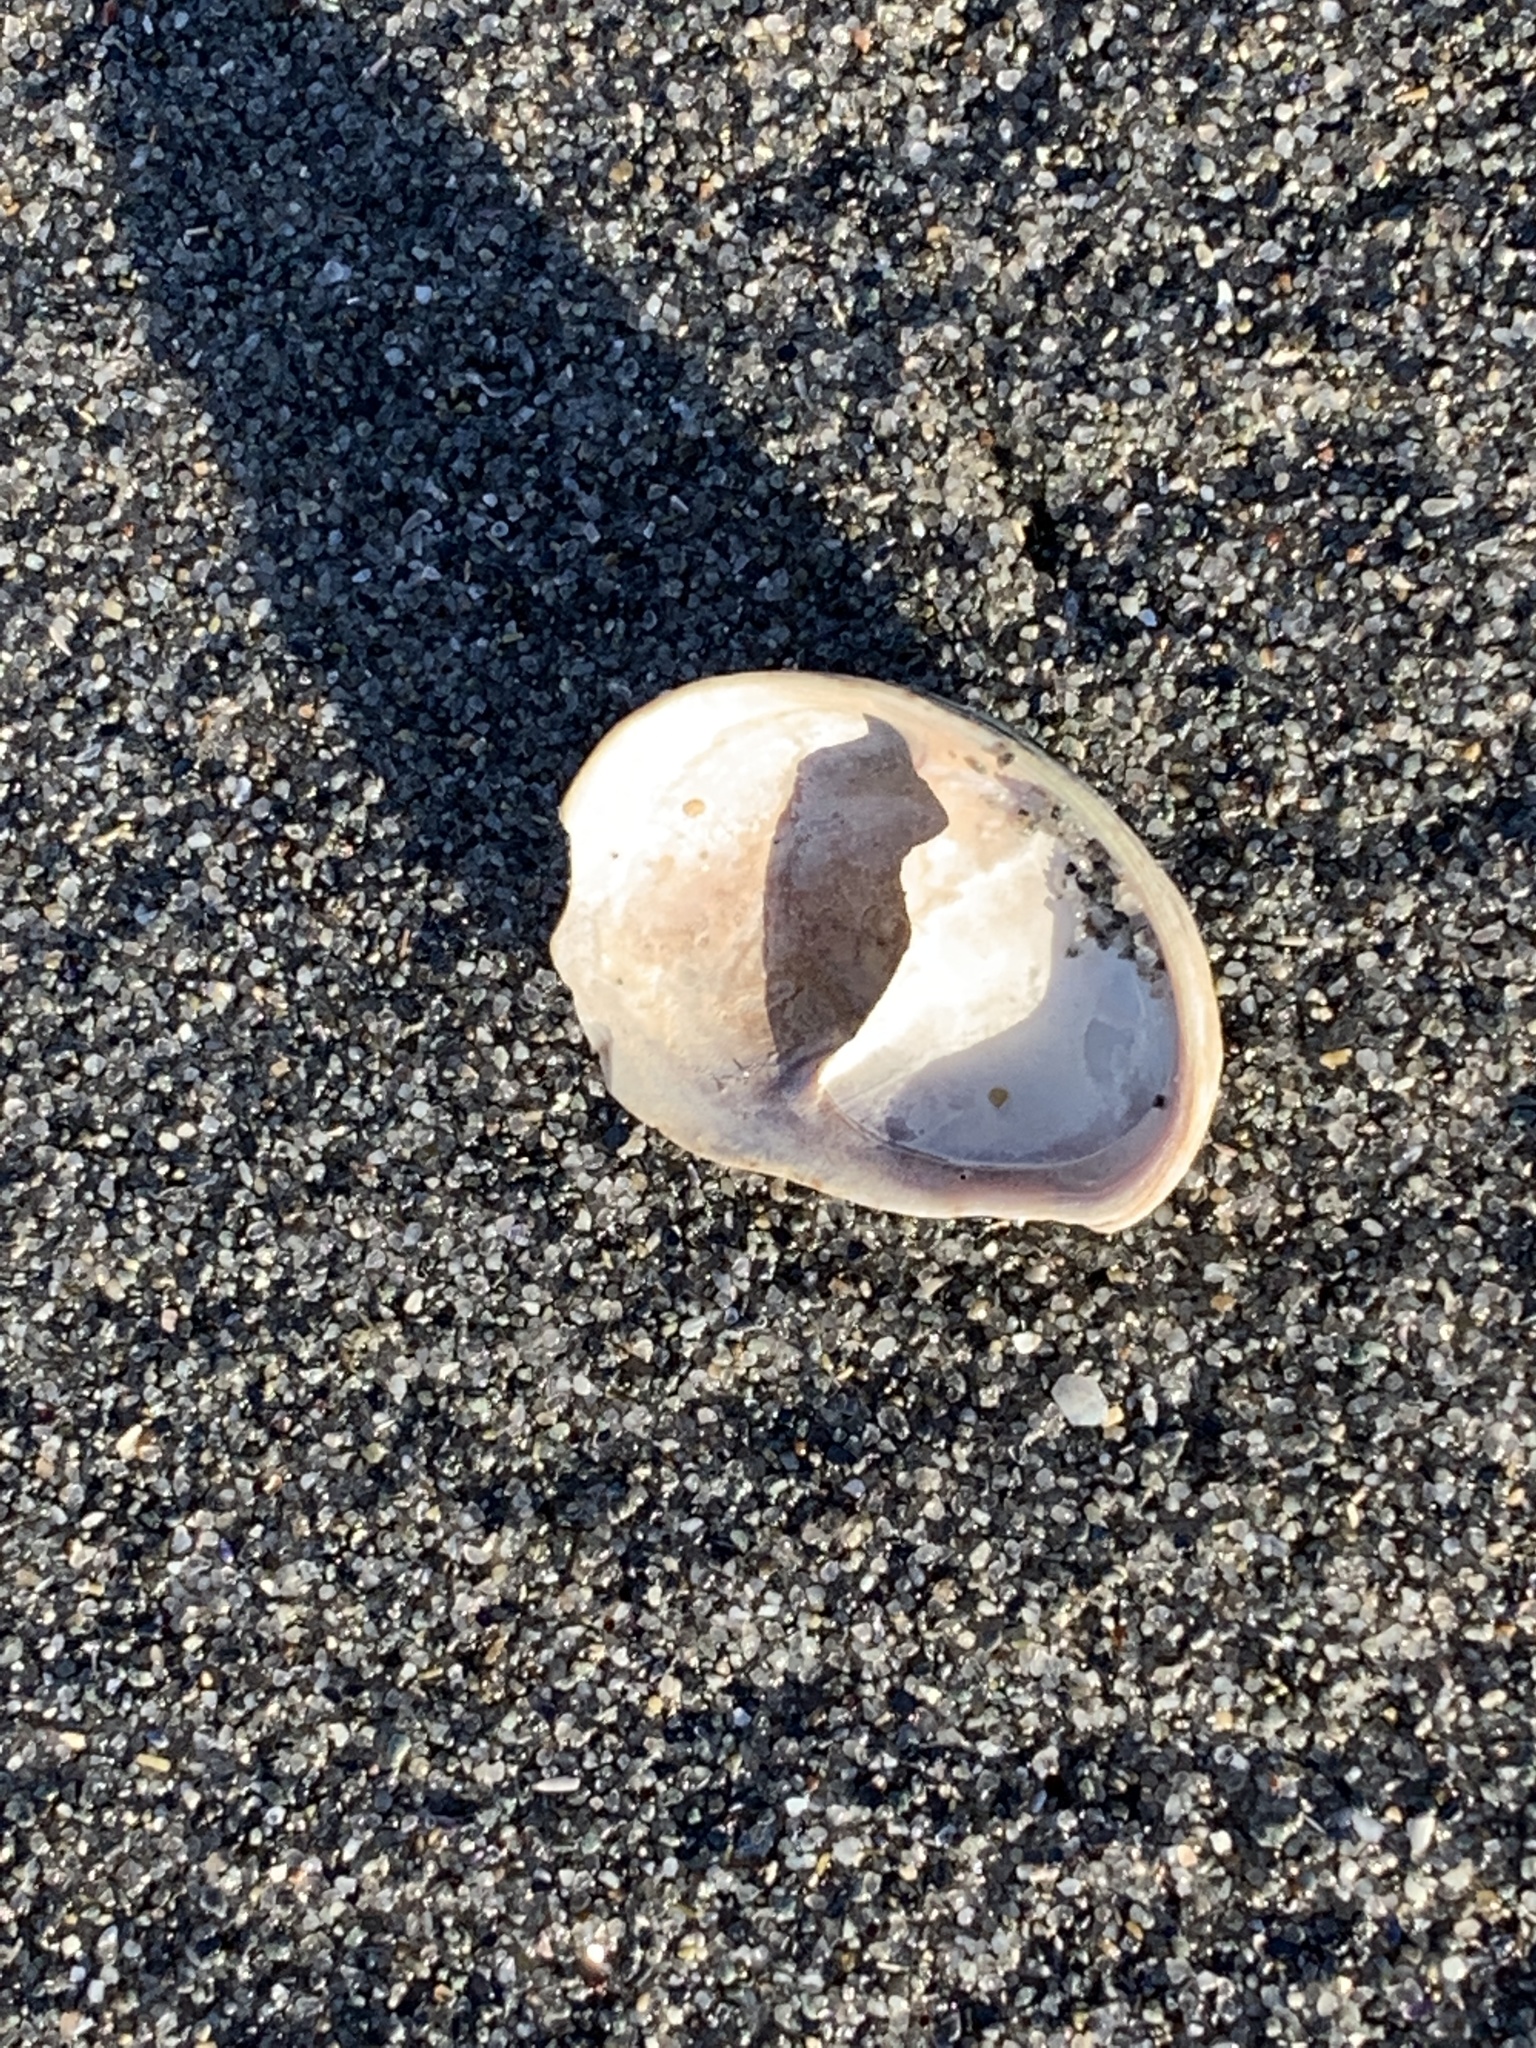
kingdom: Animalia
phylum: Mollusca
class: Gastropoda
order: Littorinimorpha
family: Calyptraeidae
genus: Crepidula
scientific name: Crepidula fornicata
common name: Slipper limpet
